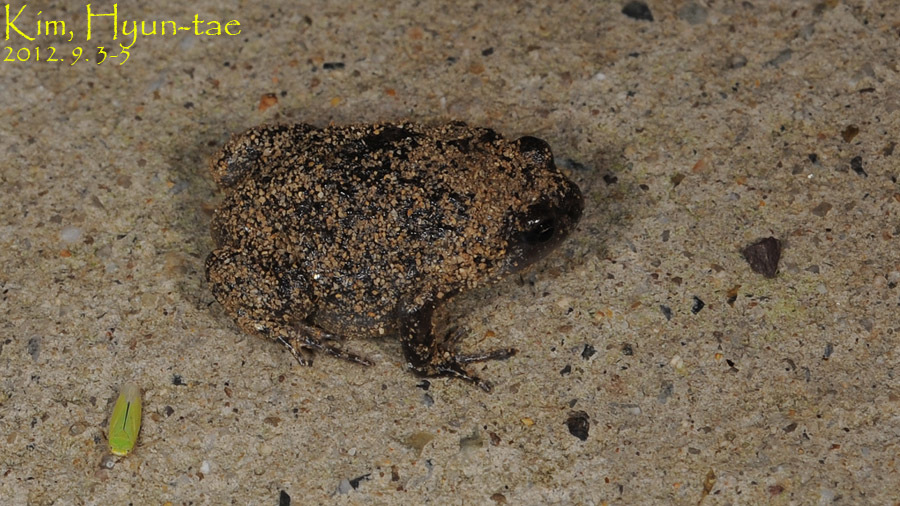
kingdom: Animalia
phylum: Chordata
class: Amphibia
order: Anura
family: Microhylidae
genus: Kaloula
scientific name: Kaloula borealis
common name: Boreal digging frog
